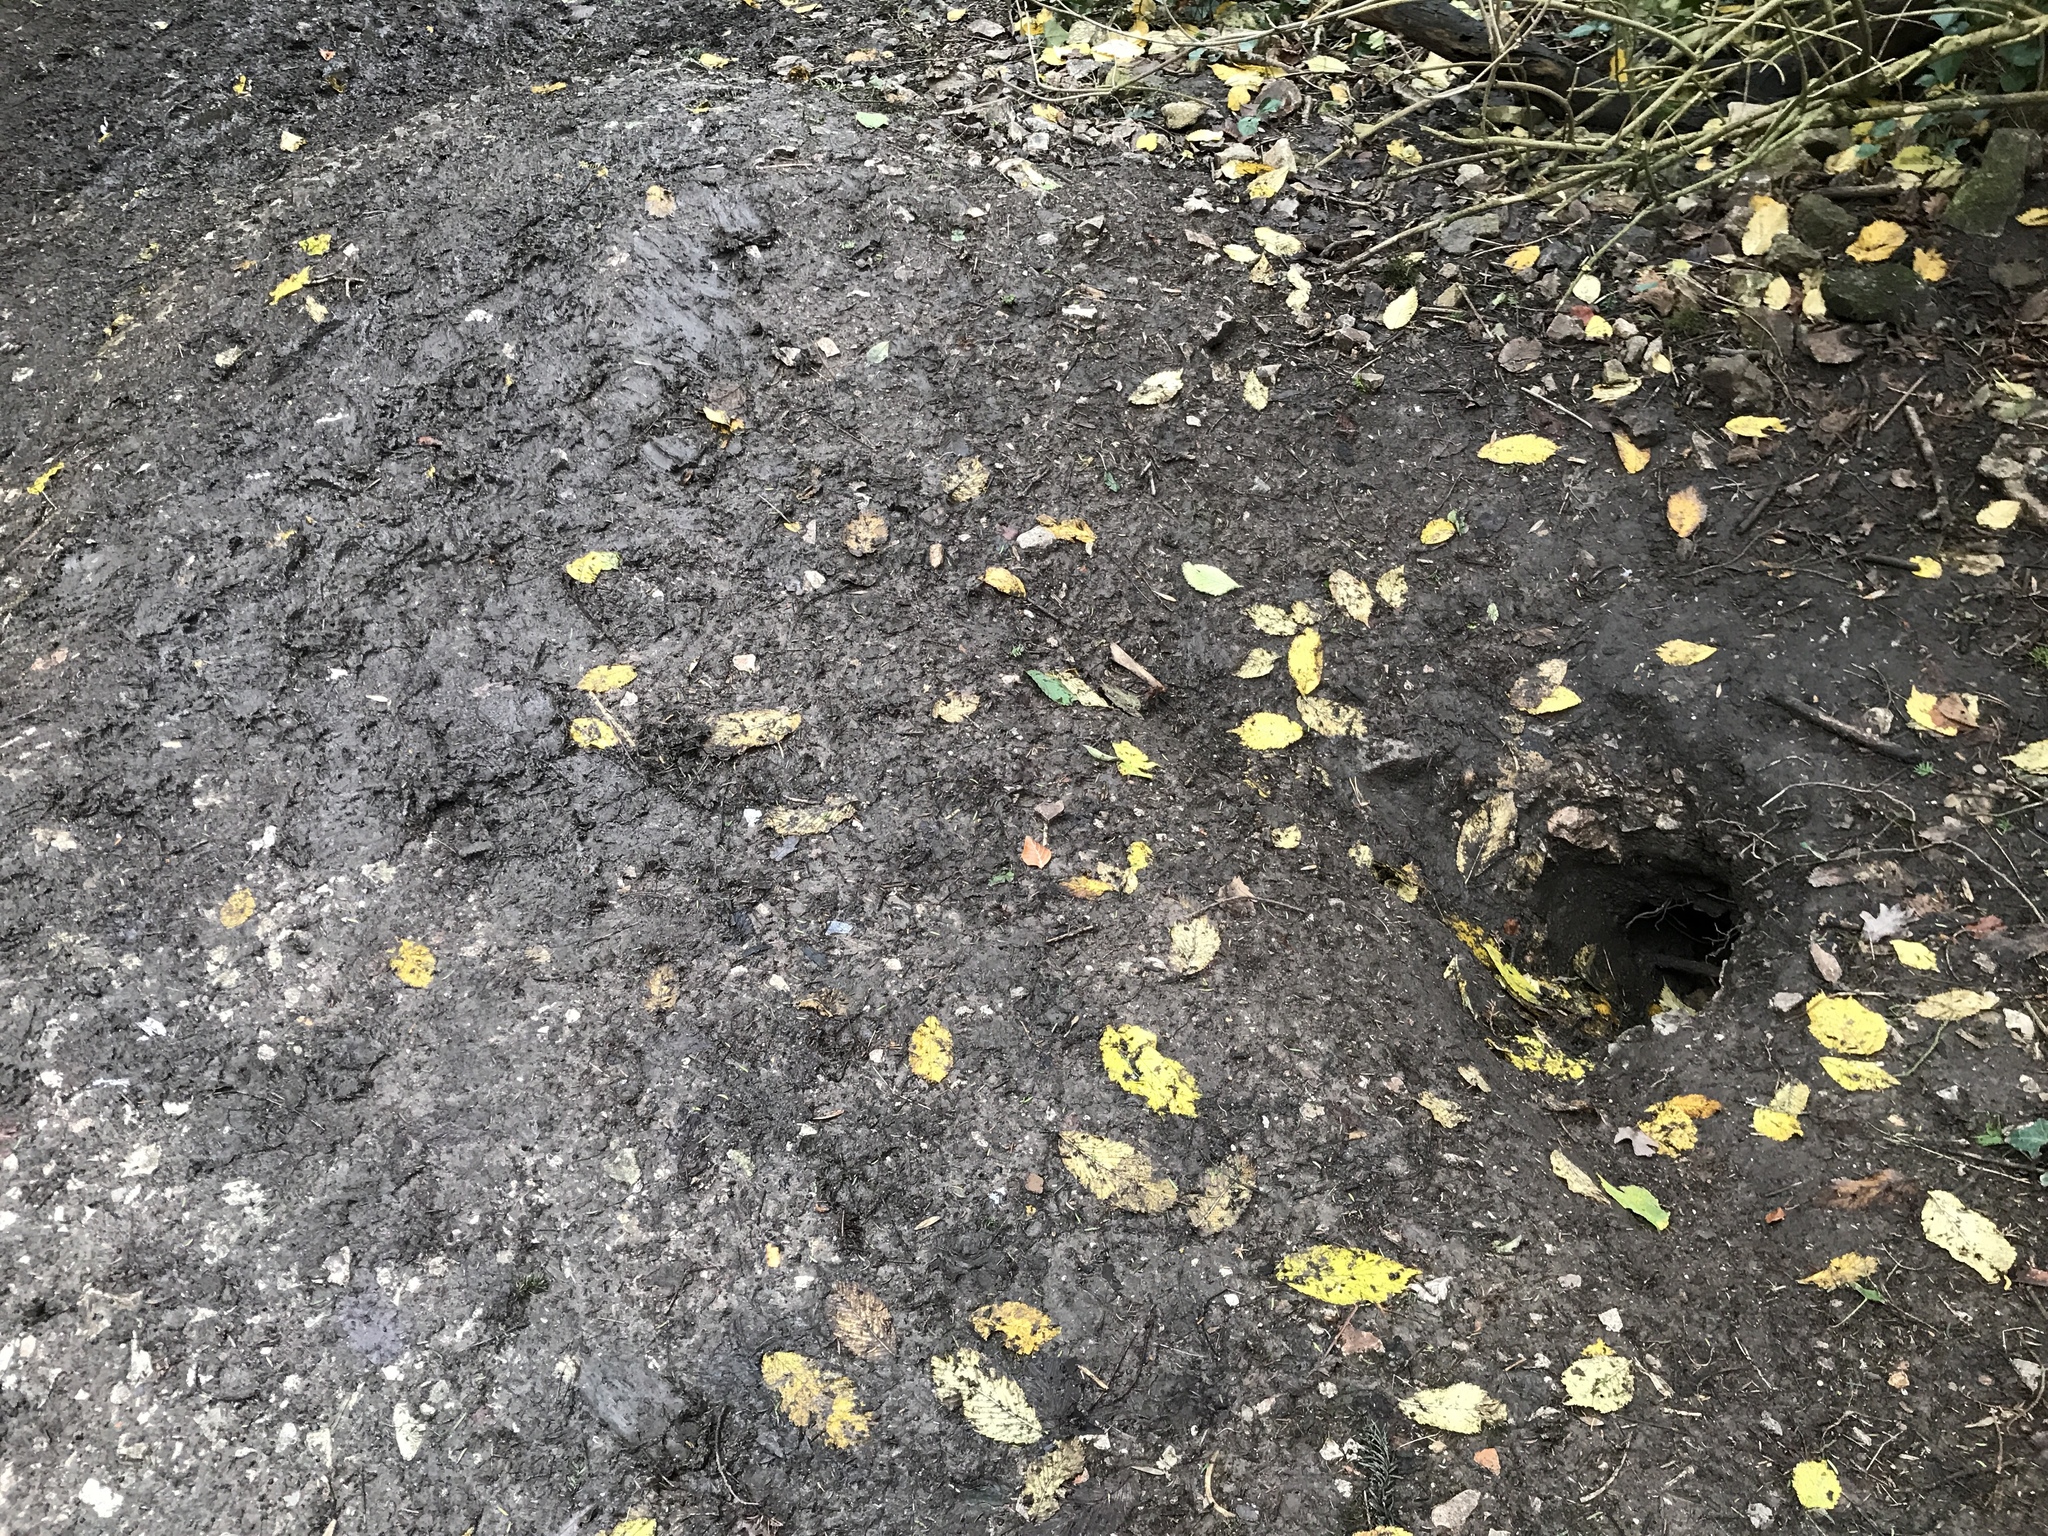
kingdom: Animalia
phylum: Chordata
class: Mammalia
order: Carnivora
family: Mustelidae
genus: Meles
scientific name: Meles meles
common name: Eurasian badger
